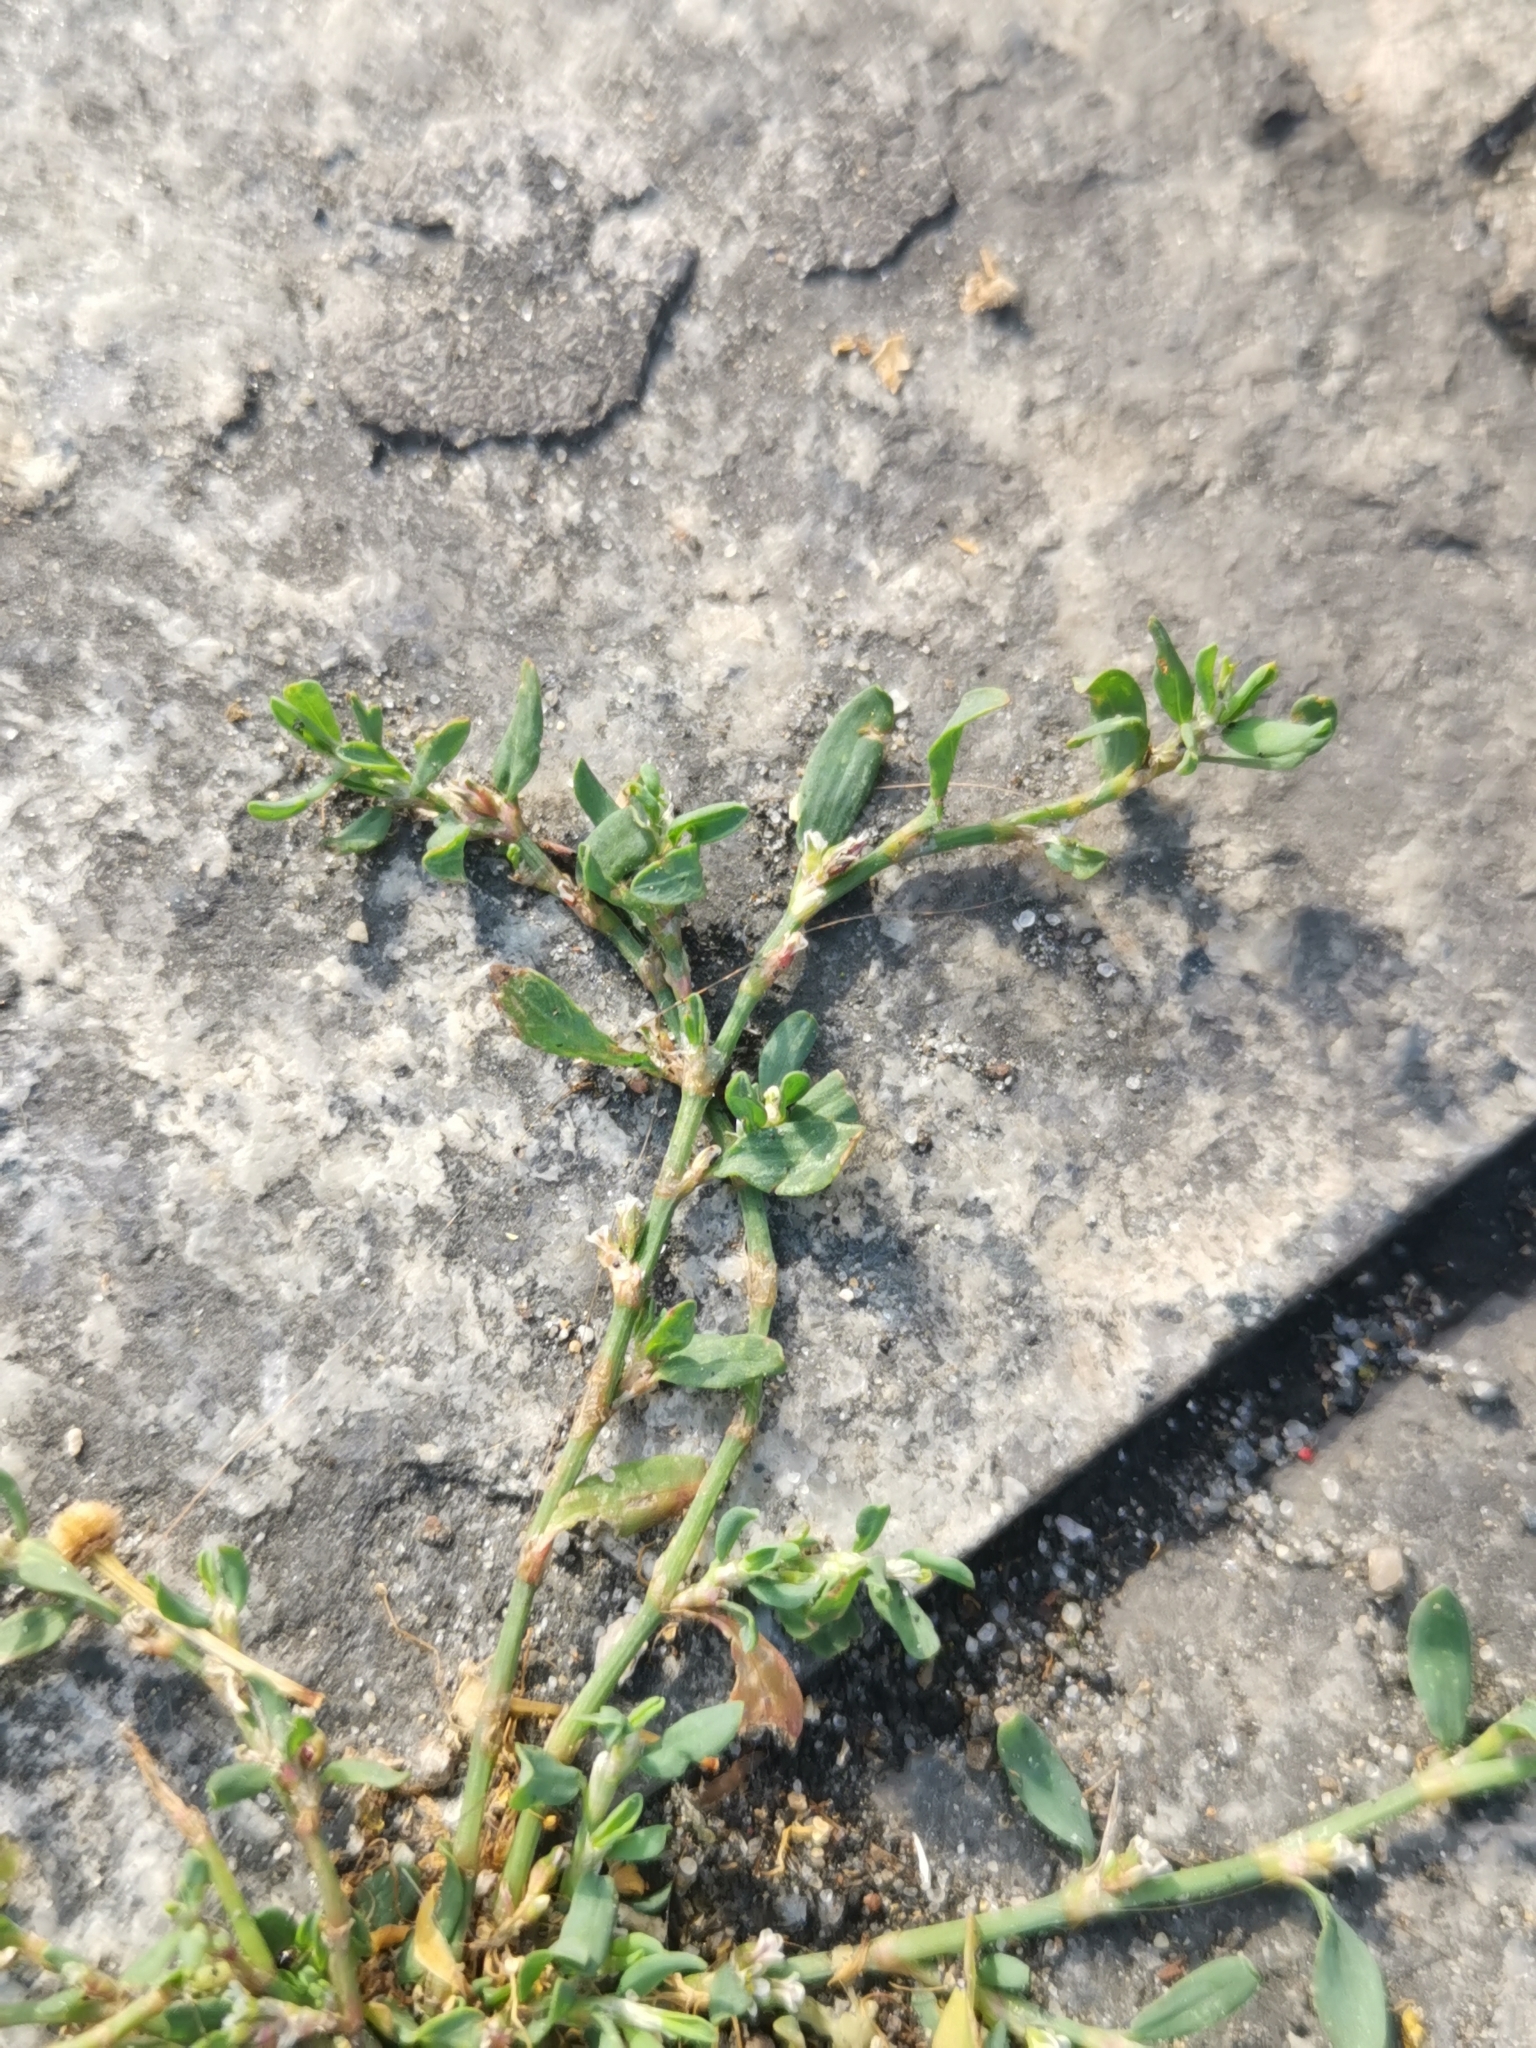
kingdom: Plantae
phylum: Tracheophyta
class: Magnoliopsida
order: Caryophyllales
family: Polygonaceae
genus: Polygonum
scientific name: Polygonum arenastrum
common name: Equal-leaved knotgrass
